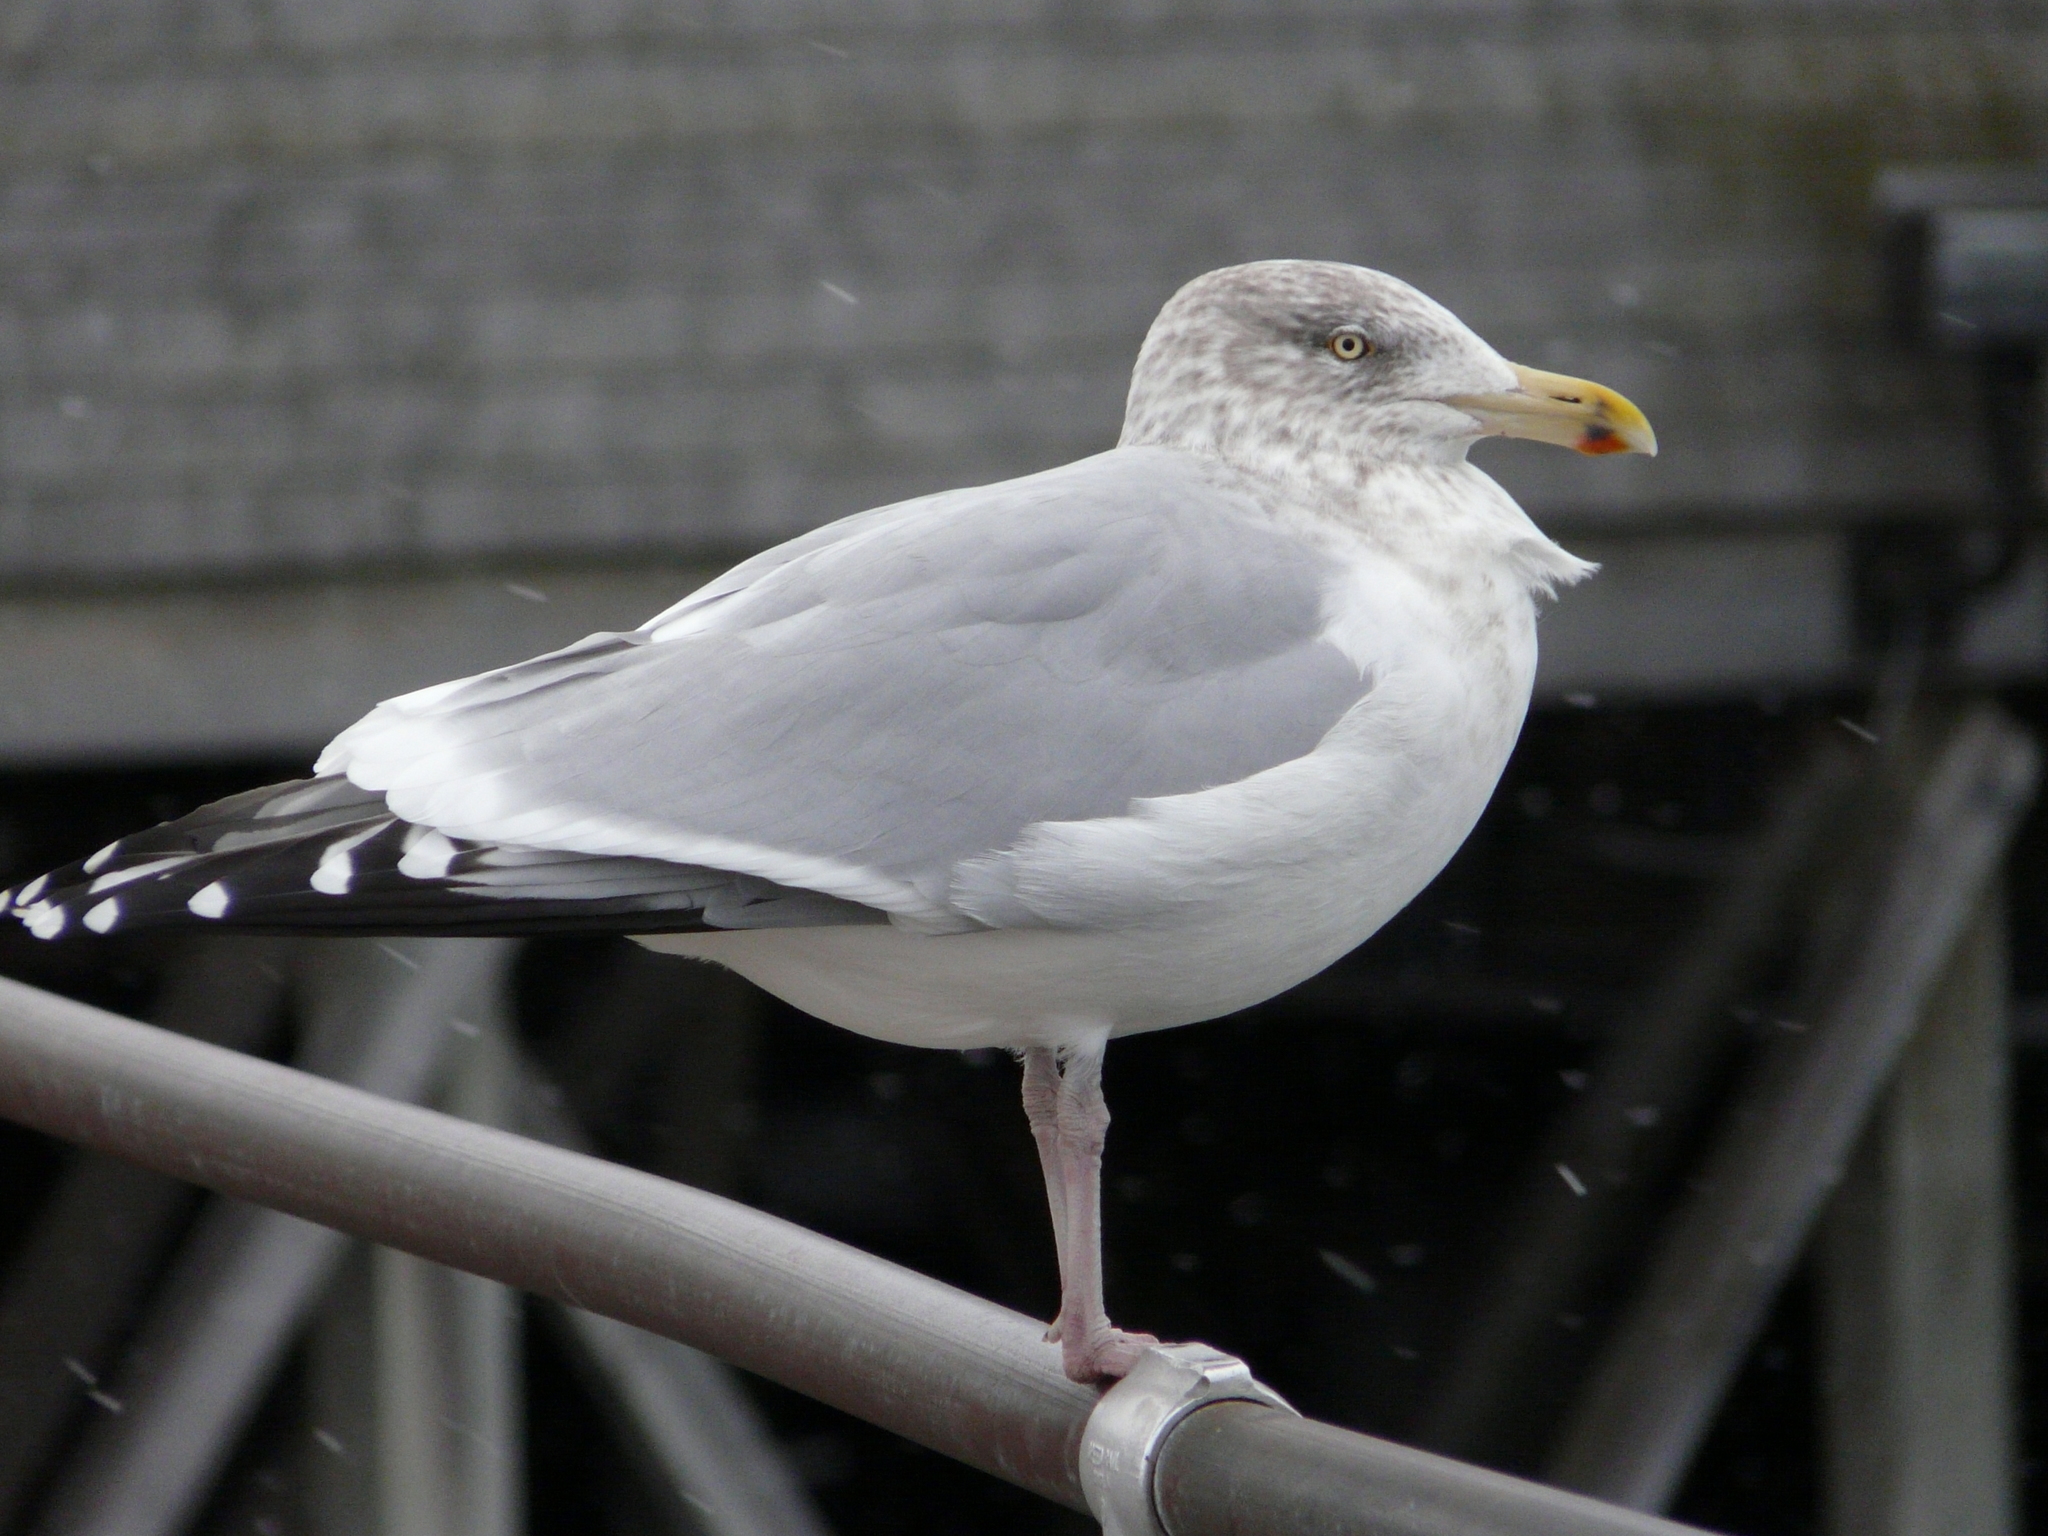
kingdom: Animalia
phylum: Chordata
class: Aves
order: Charadriiformes
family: Laridae
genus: Larus
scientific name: Larus smithsonianus
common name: American herring gull
